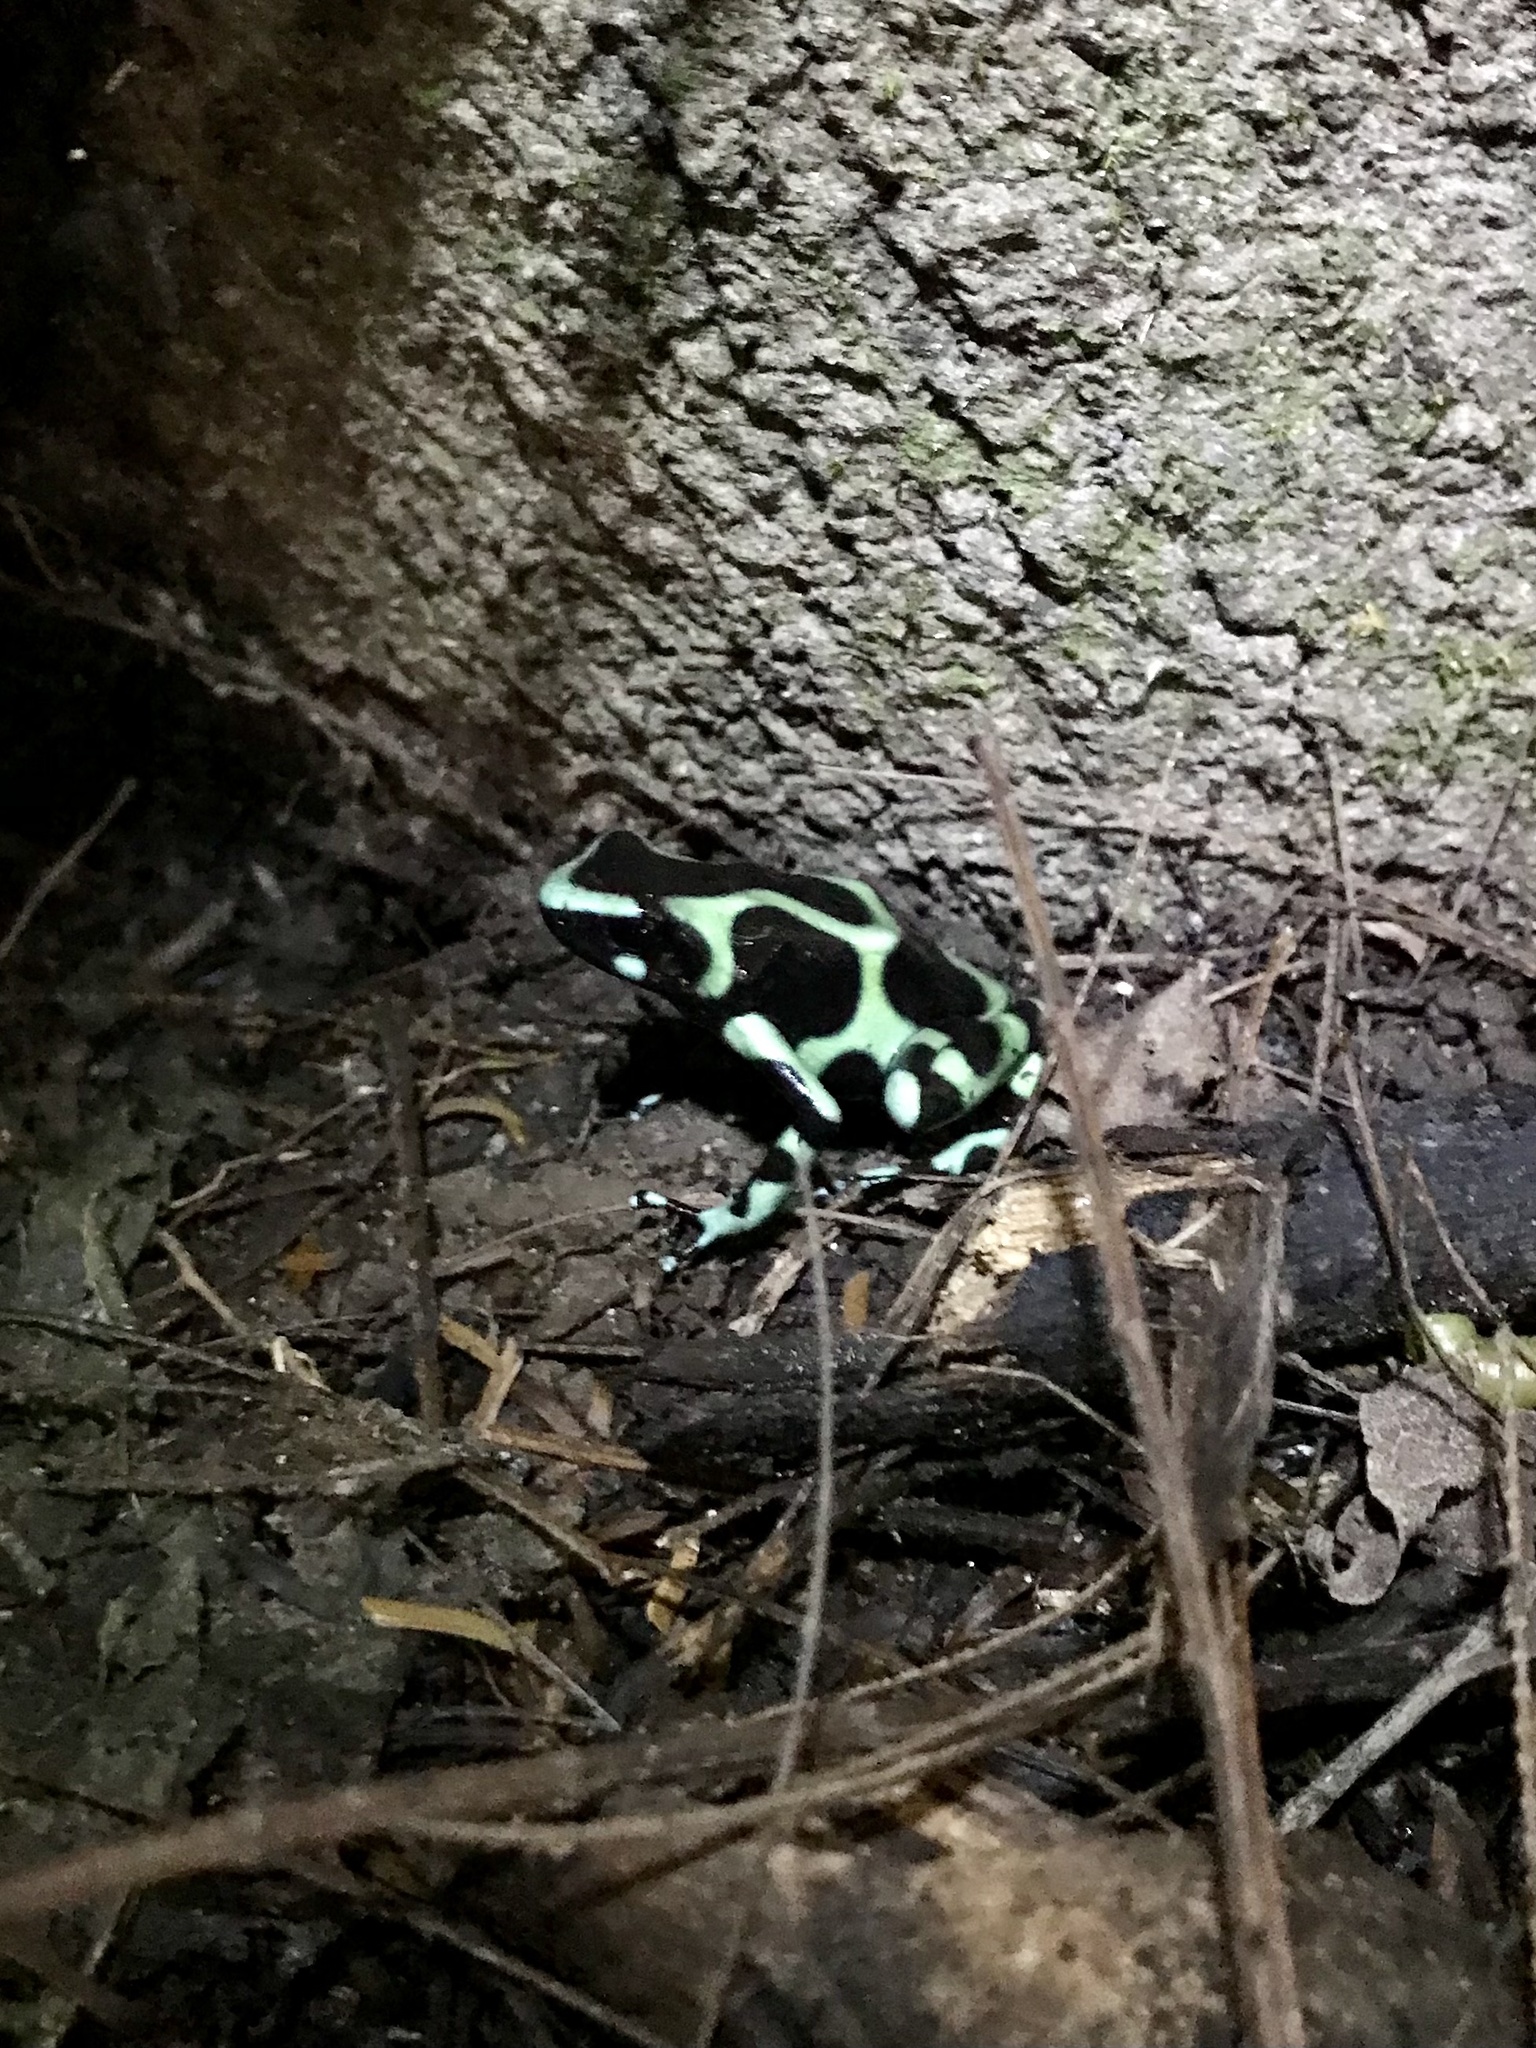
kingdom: Animalia
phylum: Chordata
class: Amphibia
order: Anura
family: Dendrobatidae
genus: Dendrobates
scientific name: Dendrobates auratus
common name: Green and black poison dart frog
